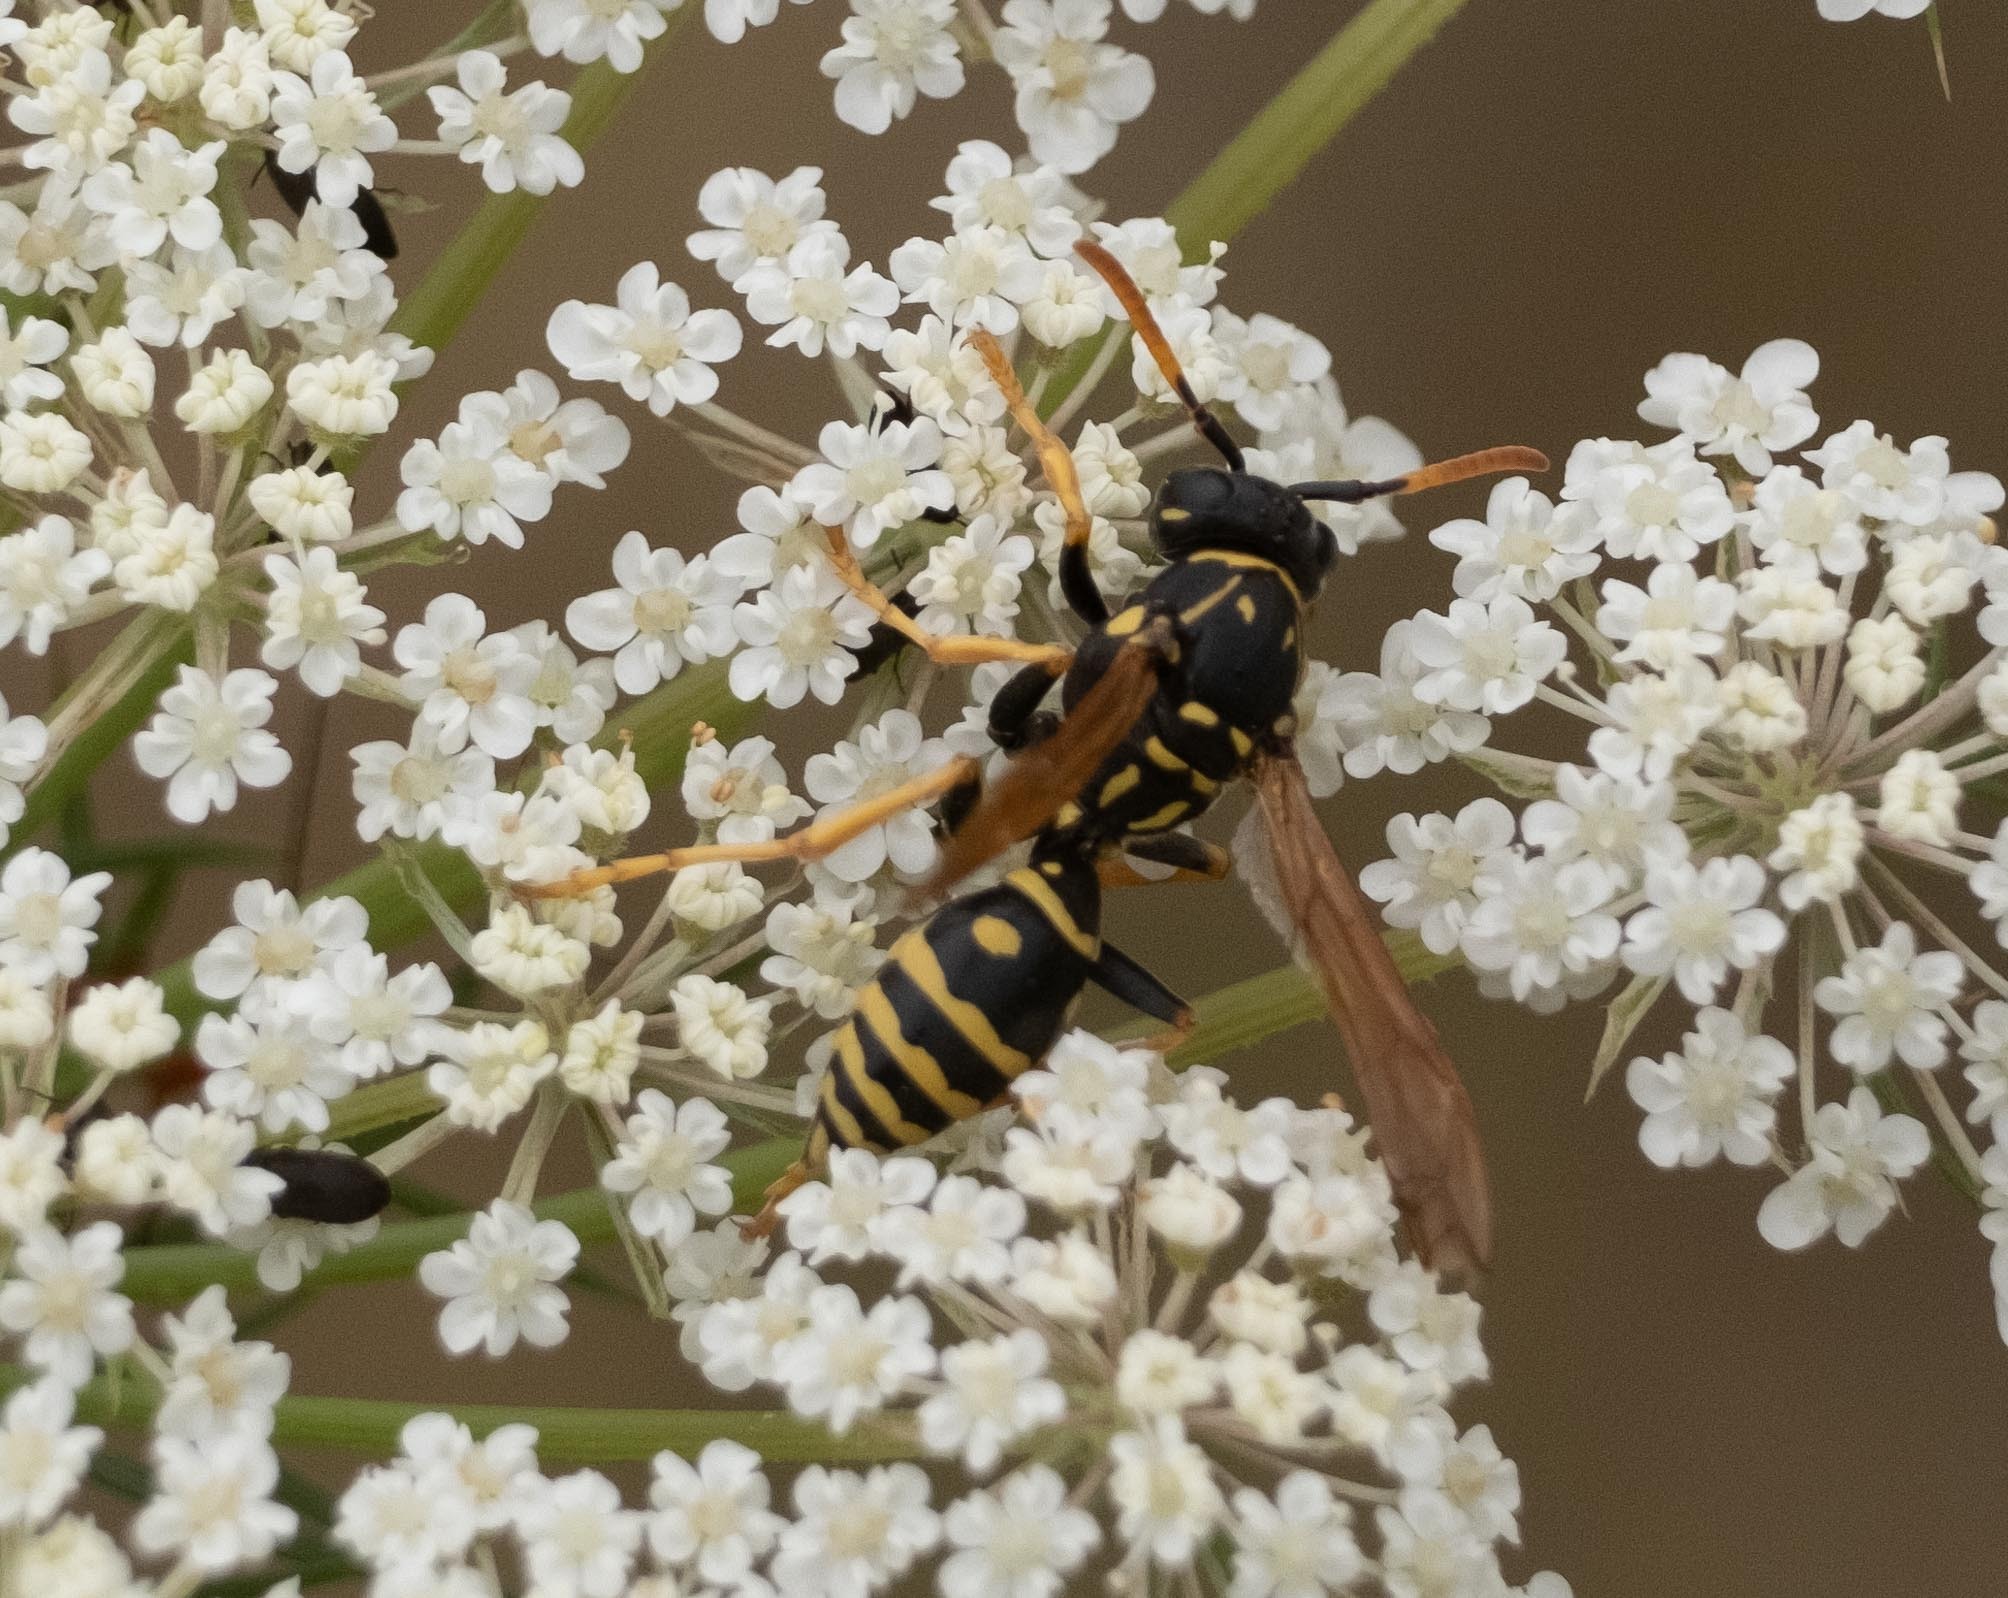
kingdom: Animalia
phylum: Arthropoda
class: Insecta
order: Hymenoptera
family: Eumenidae
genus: Polistes
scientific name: Polistes dominula
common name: Paper wasp
